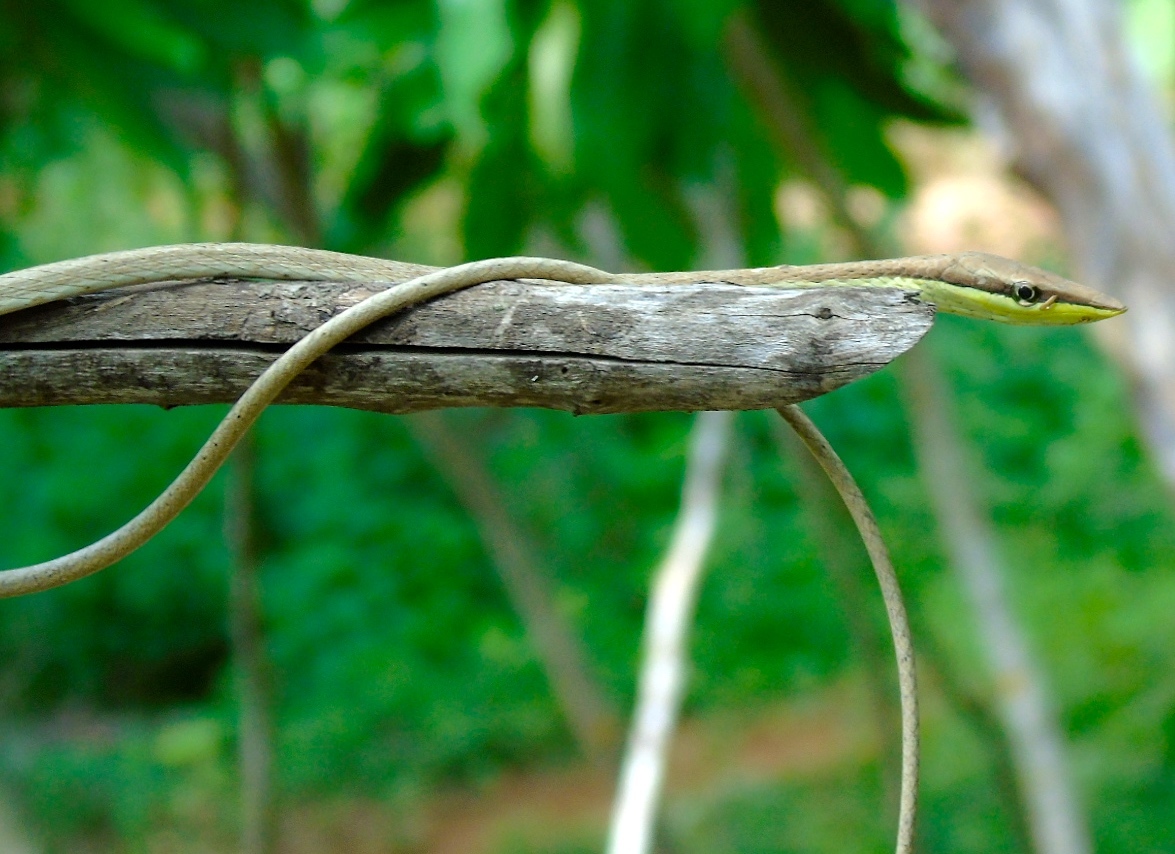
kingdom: Animalia
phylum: Chordata
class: Squamata
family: Colubridae
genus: Oxybelis
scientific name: Oxybelis microphthalmus
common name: Thrornscrub vine snake
